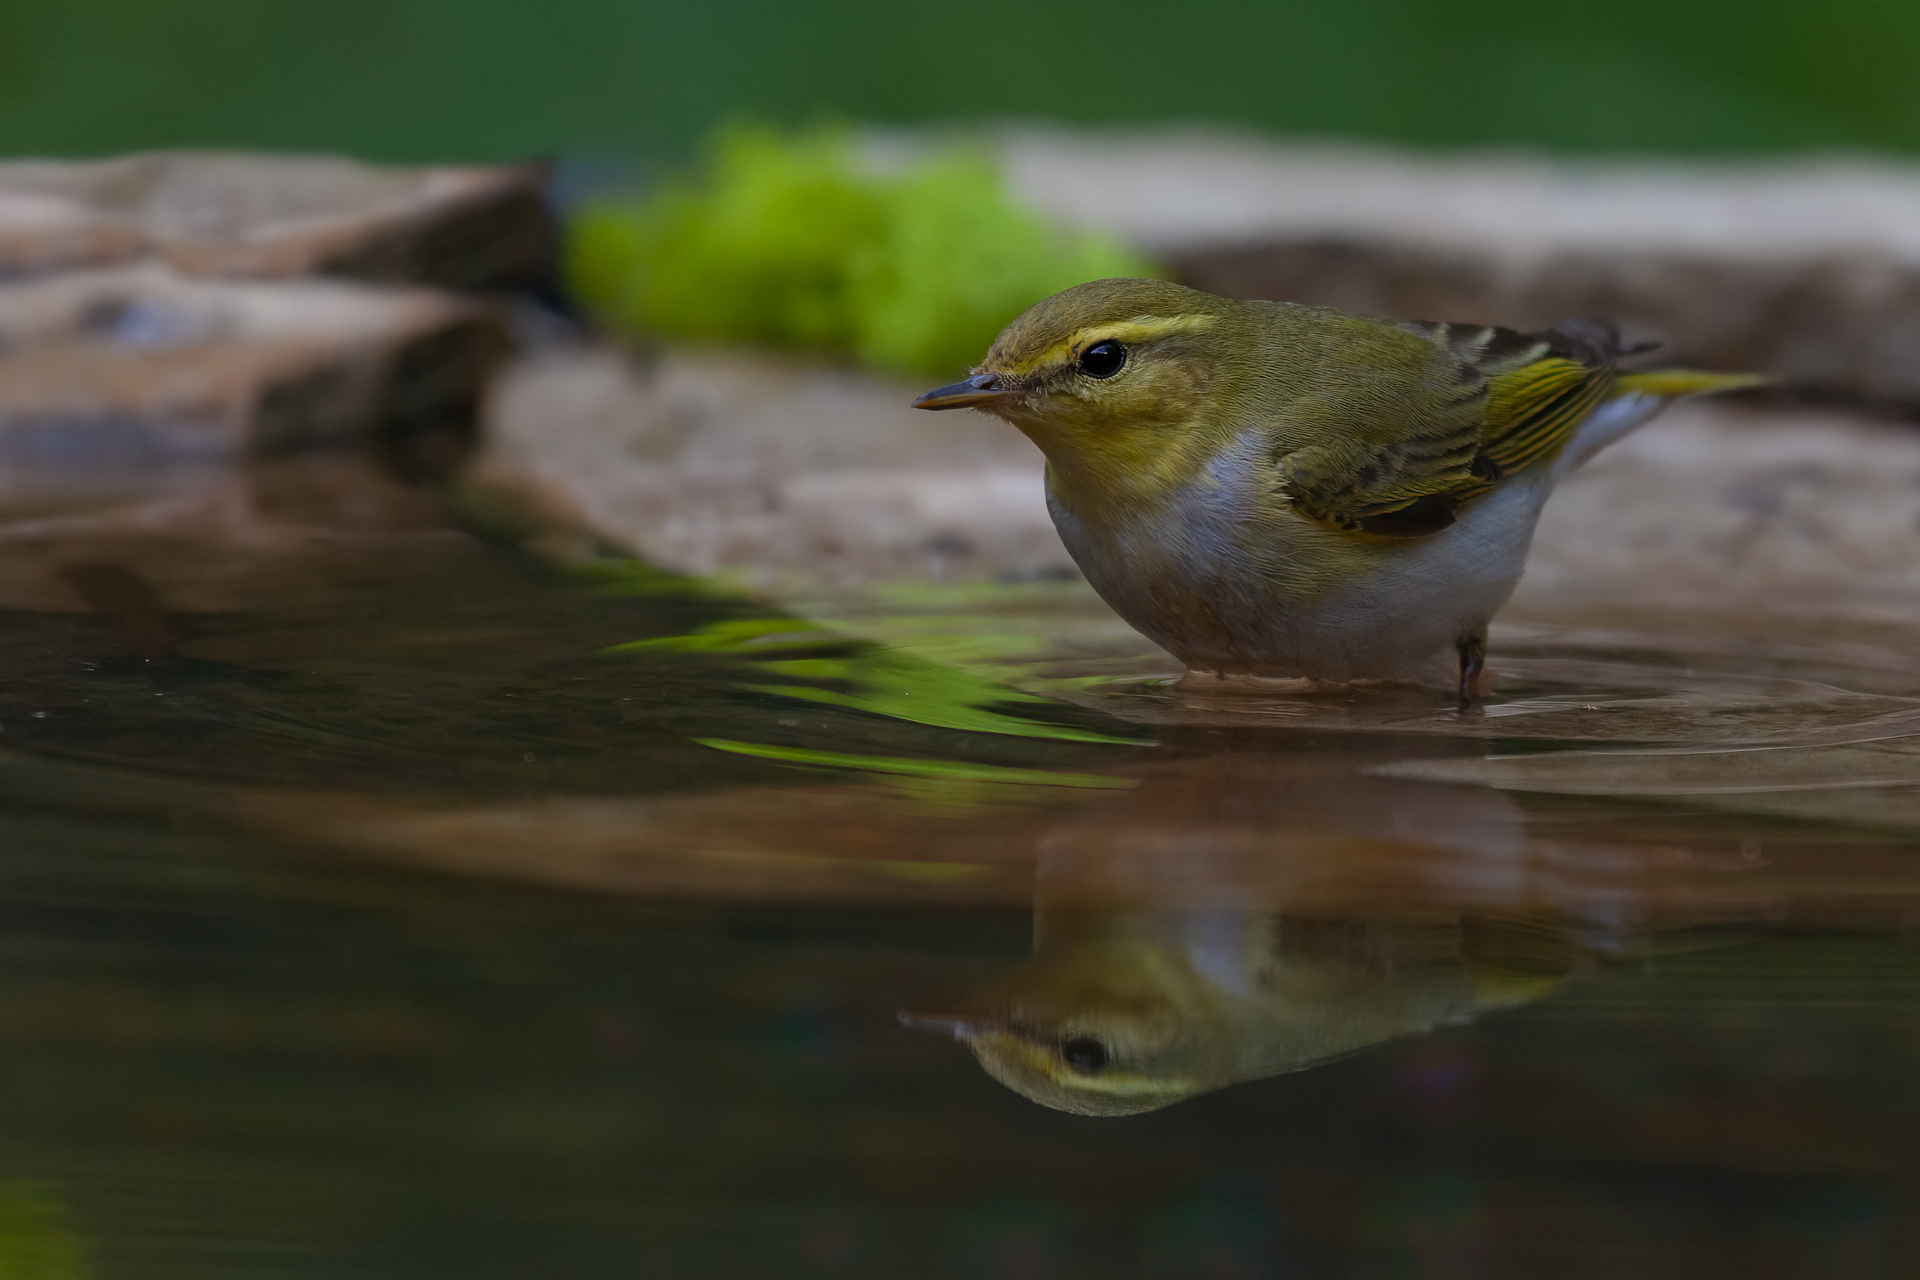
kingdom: Animalia
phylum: Chordata
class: Aves
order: Passeriformes
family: Phylloscopidae
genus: Phylloscopus
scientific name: Phylloscopus sibillatrix
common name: Wood warbler
